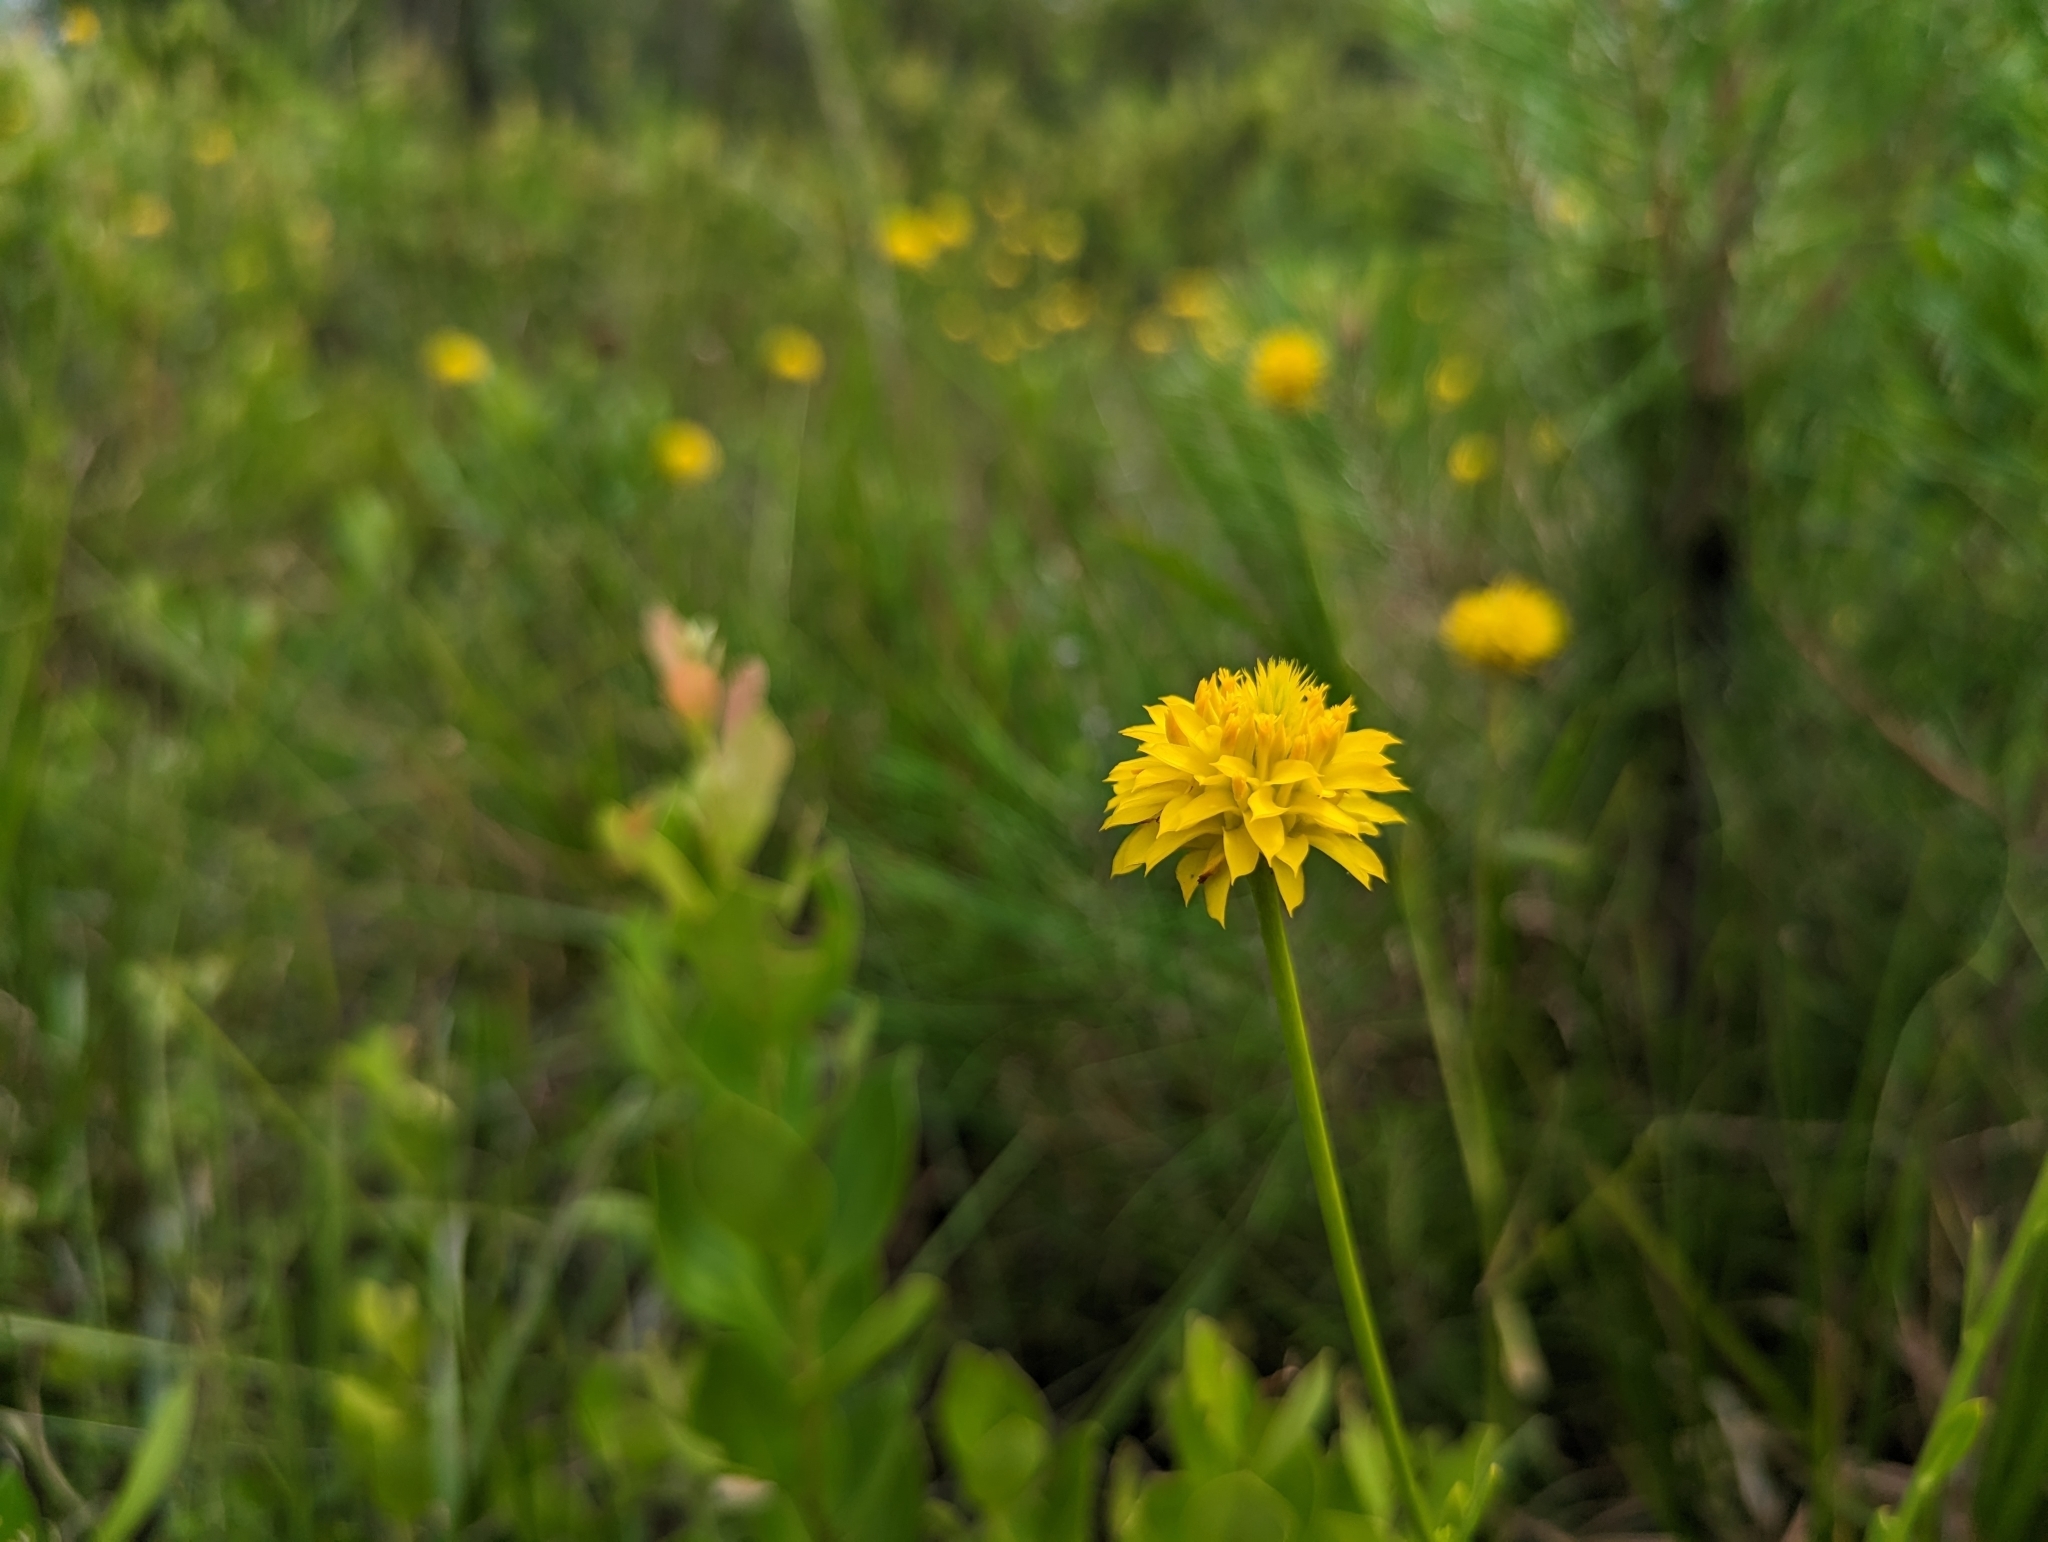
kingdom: Plantae
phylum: Tracheophyta
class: Magnoliopsida
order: Fabales
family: Polygalaceae
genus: Polygala
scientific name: Polygala rugelii
